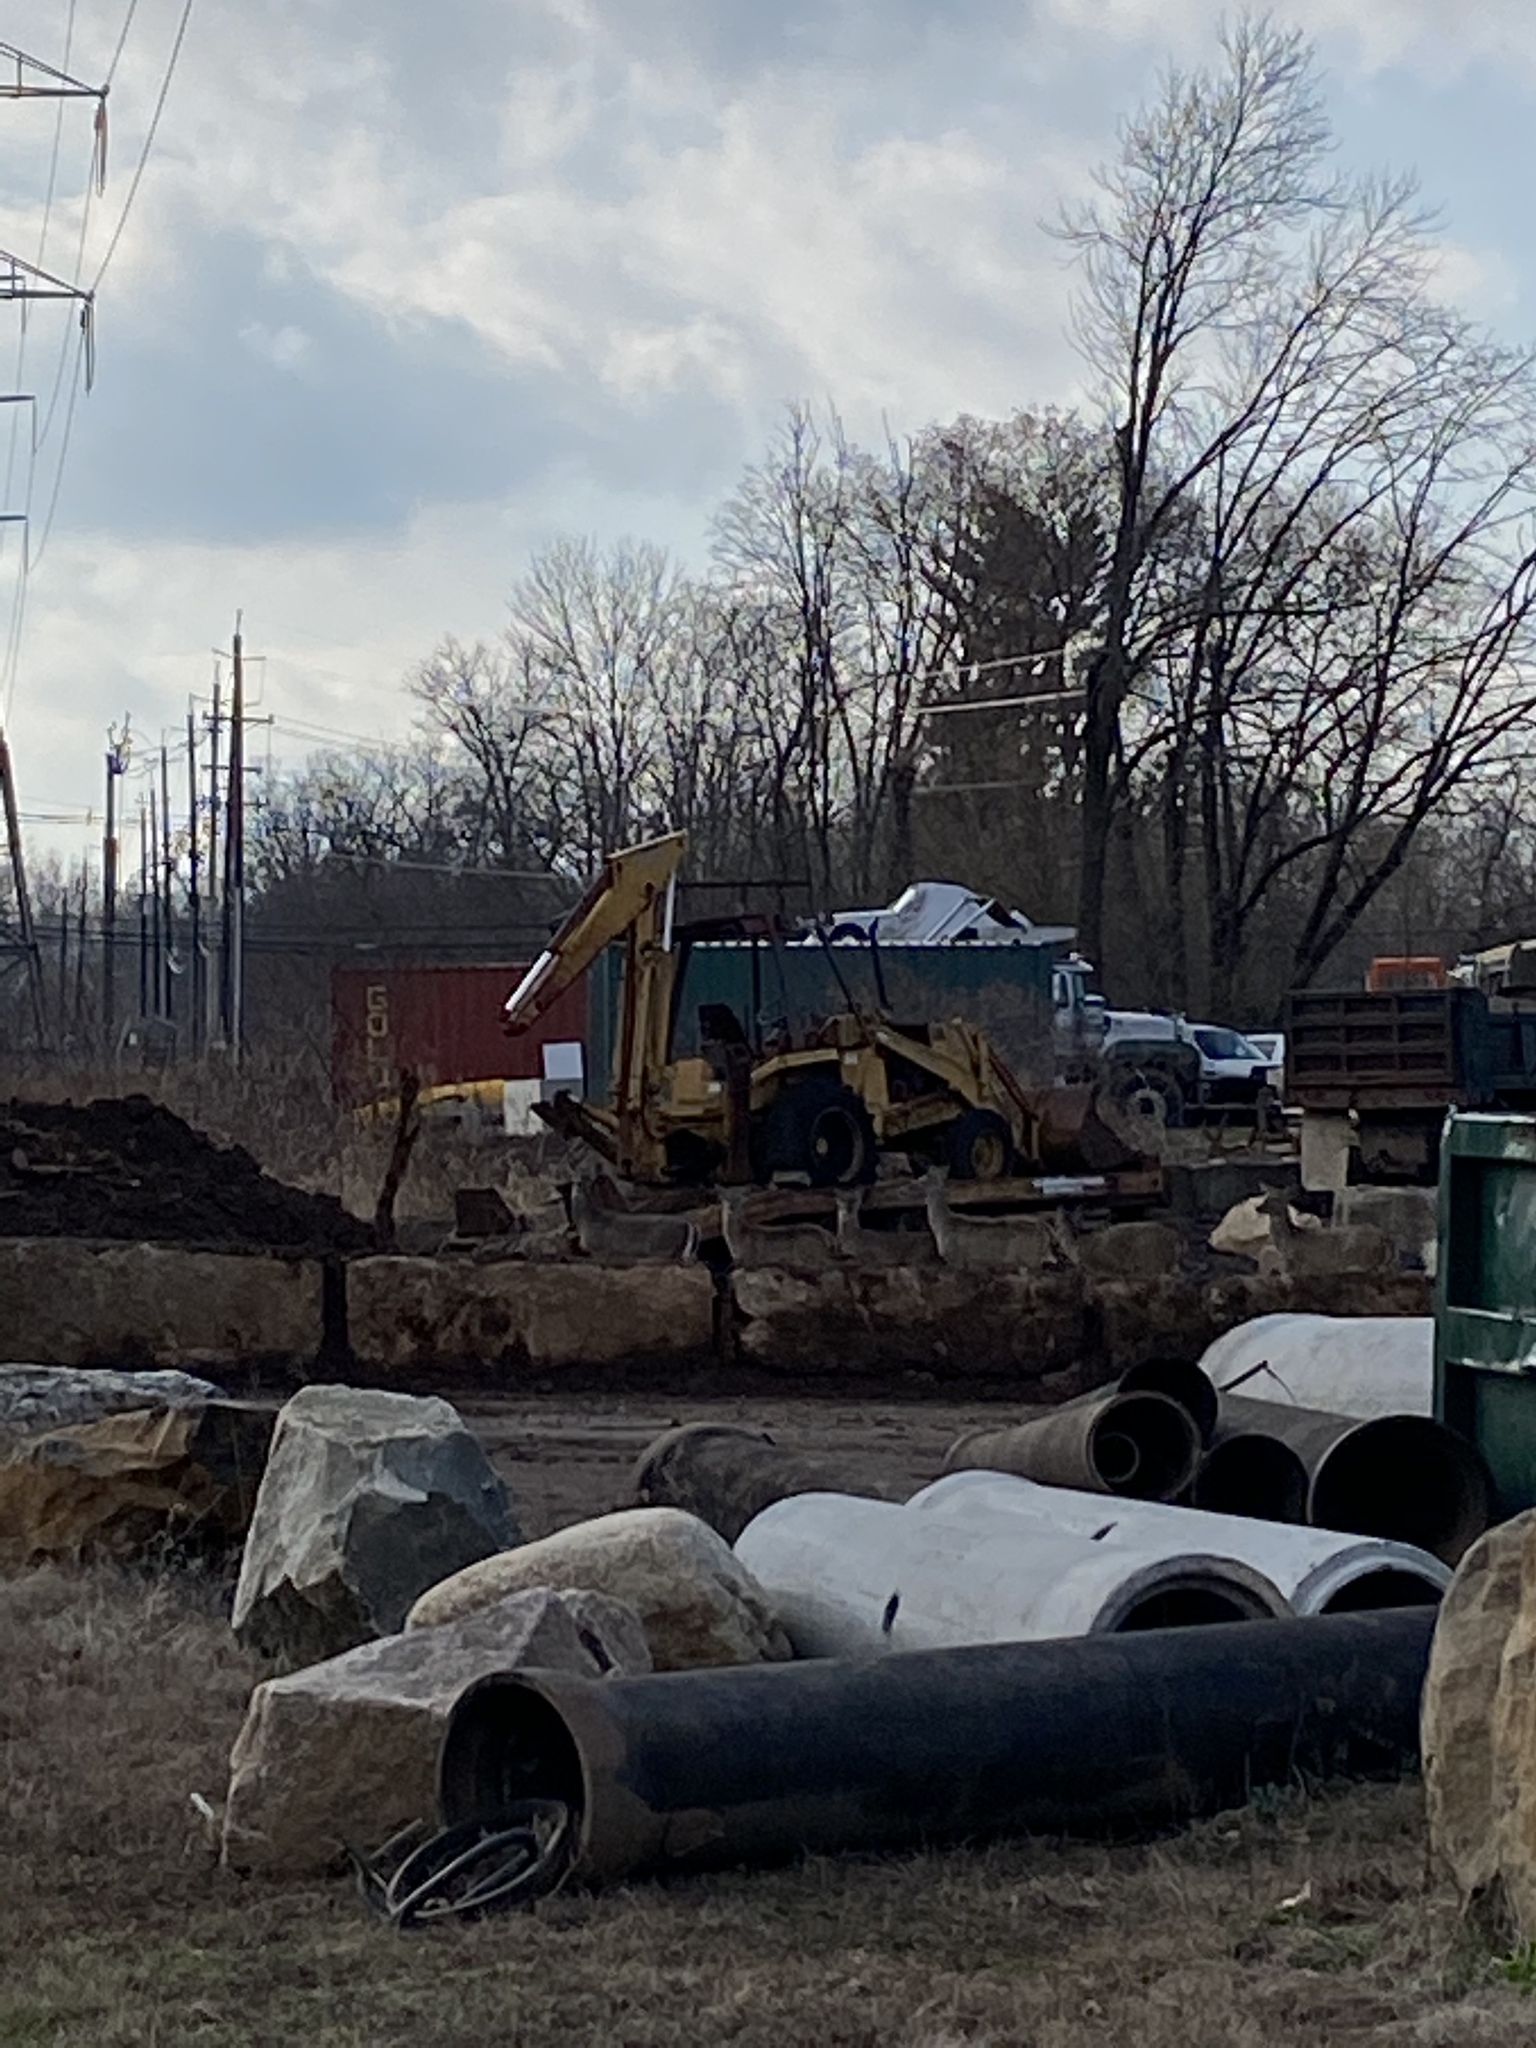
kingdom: Animalia
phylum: Chordata
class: Mammalia
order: Artiodactyla
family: Cervidae
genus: Odocoileus
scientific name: Odocoileus virginianus
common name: White-tailed deer
